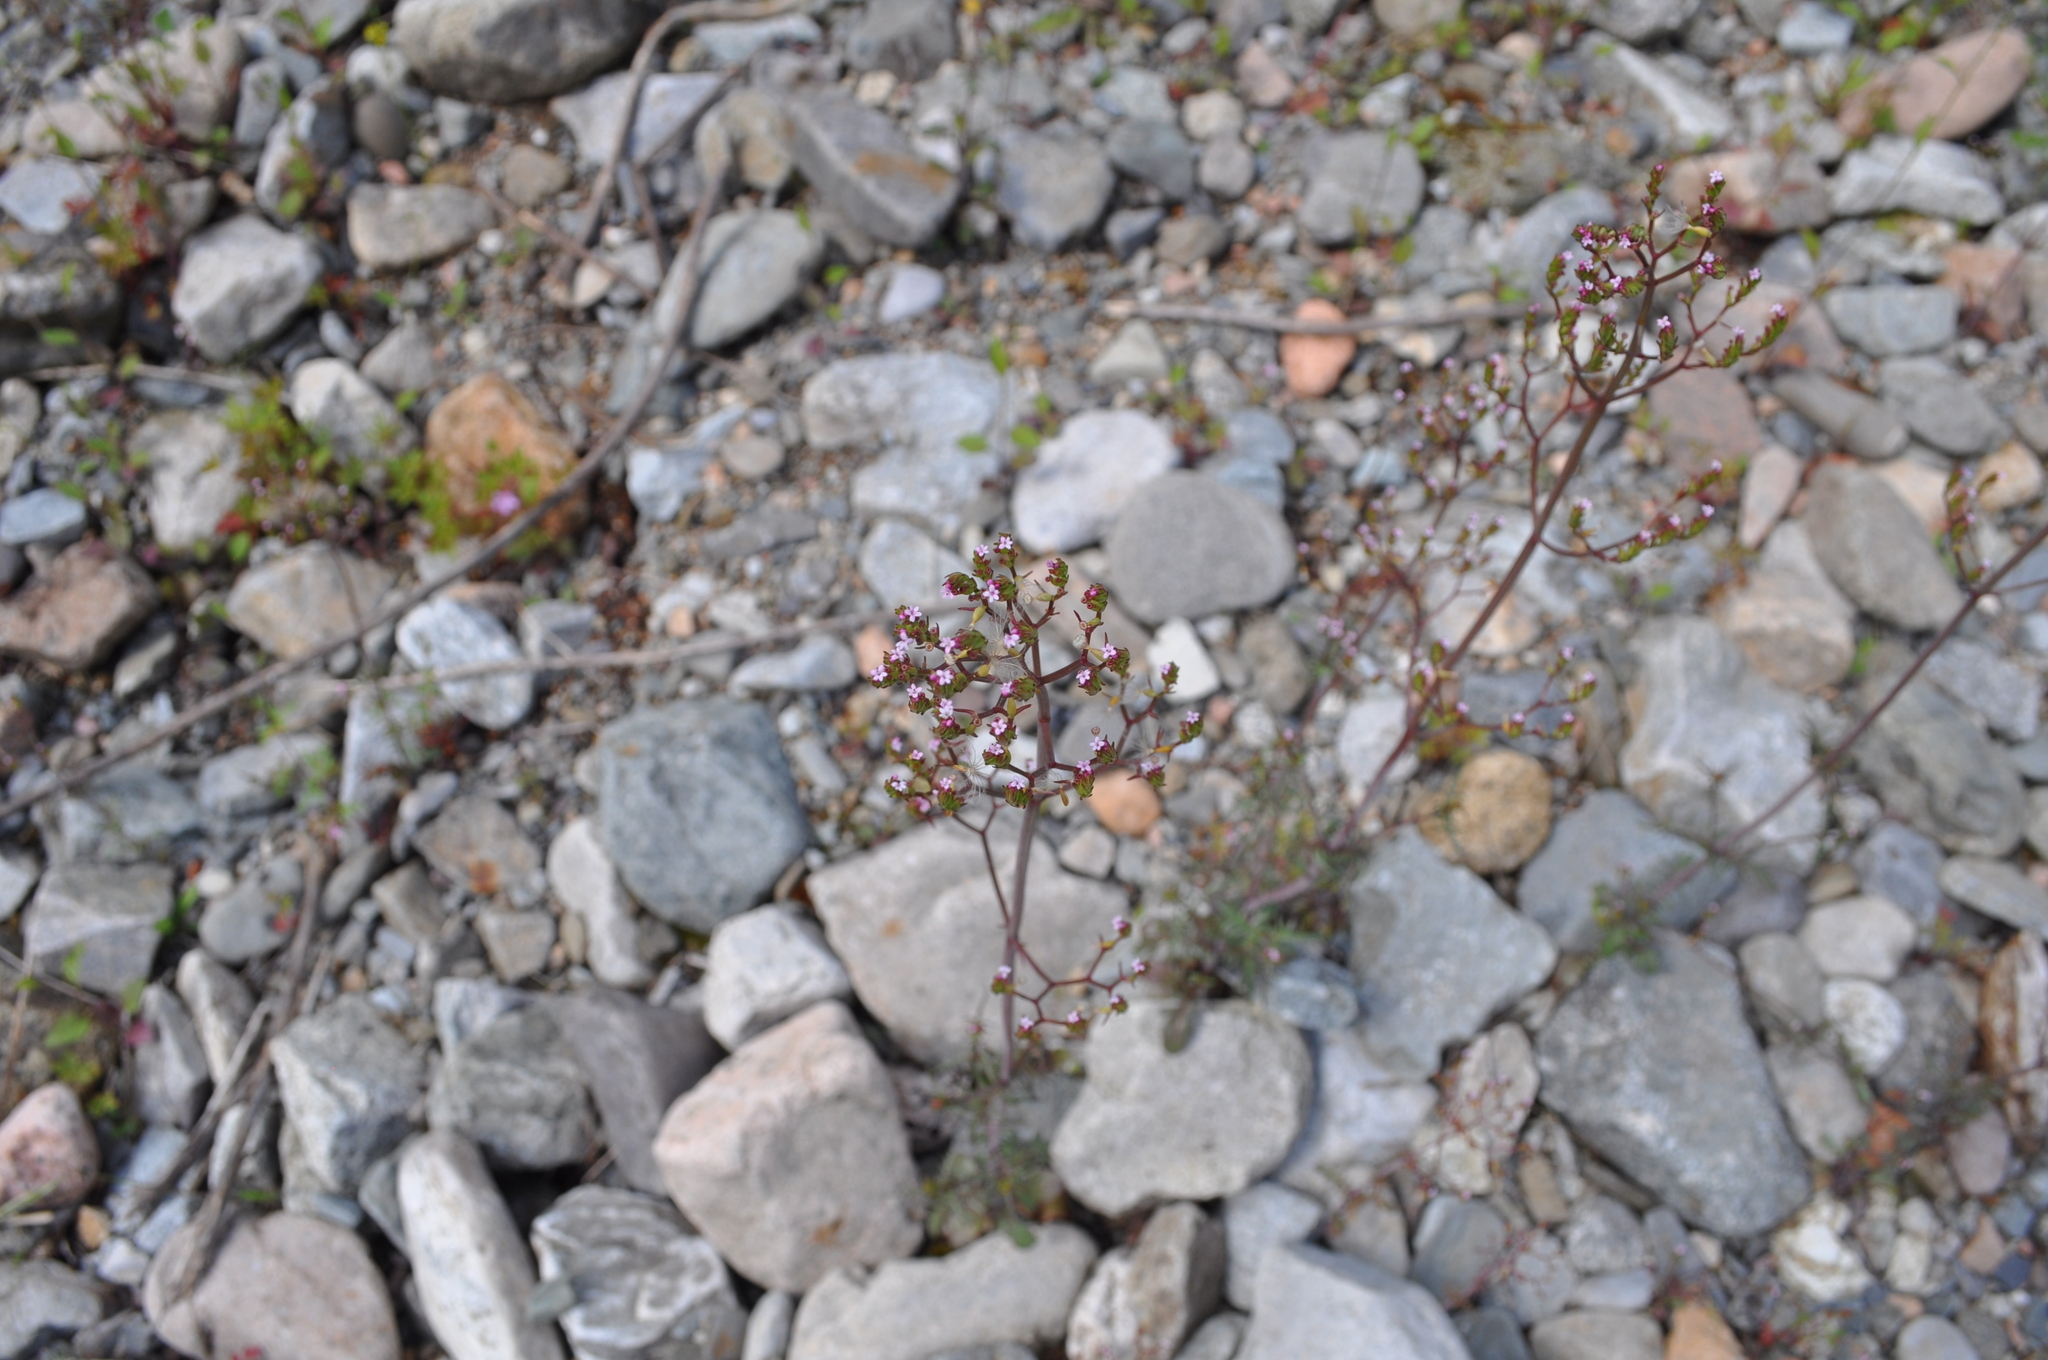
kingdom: Plantae
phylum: Tracheophyta
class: Magnoliopsida
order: Dipsacales
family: Caprifoliaceae
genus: Centranthus
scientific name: Centranthus calcitrapae
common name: Annual valerian
